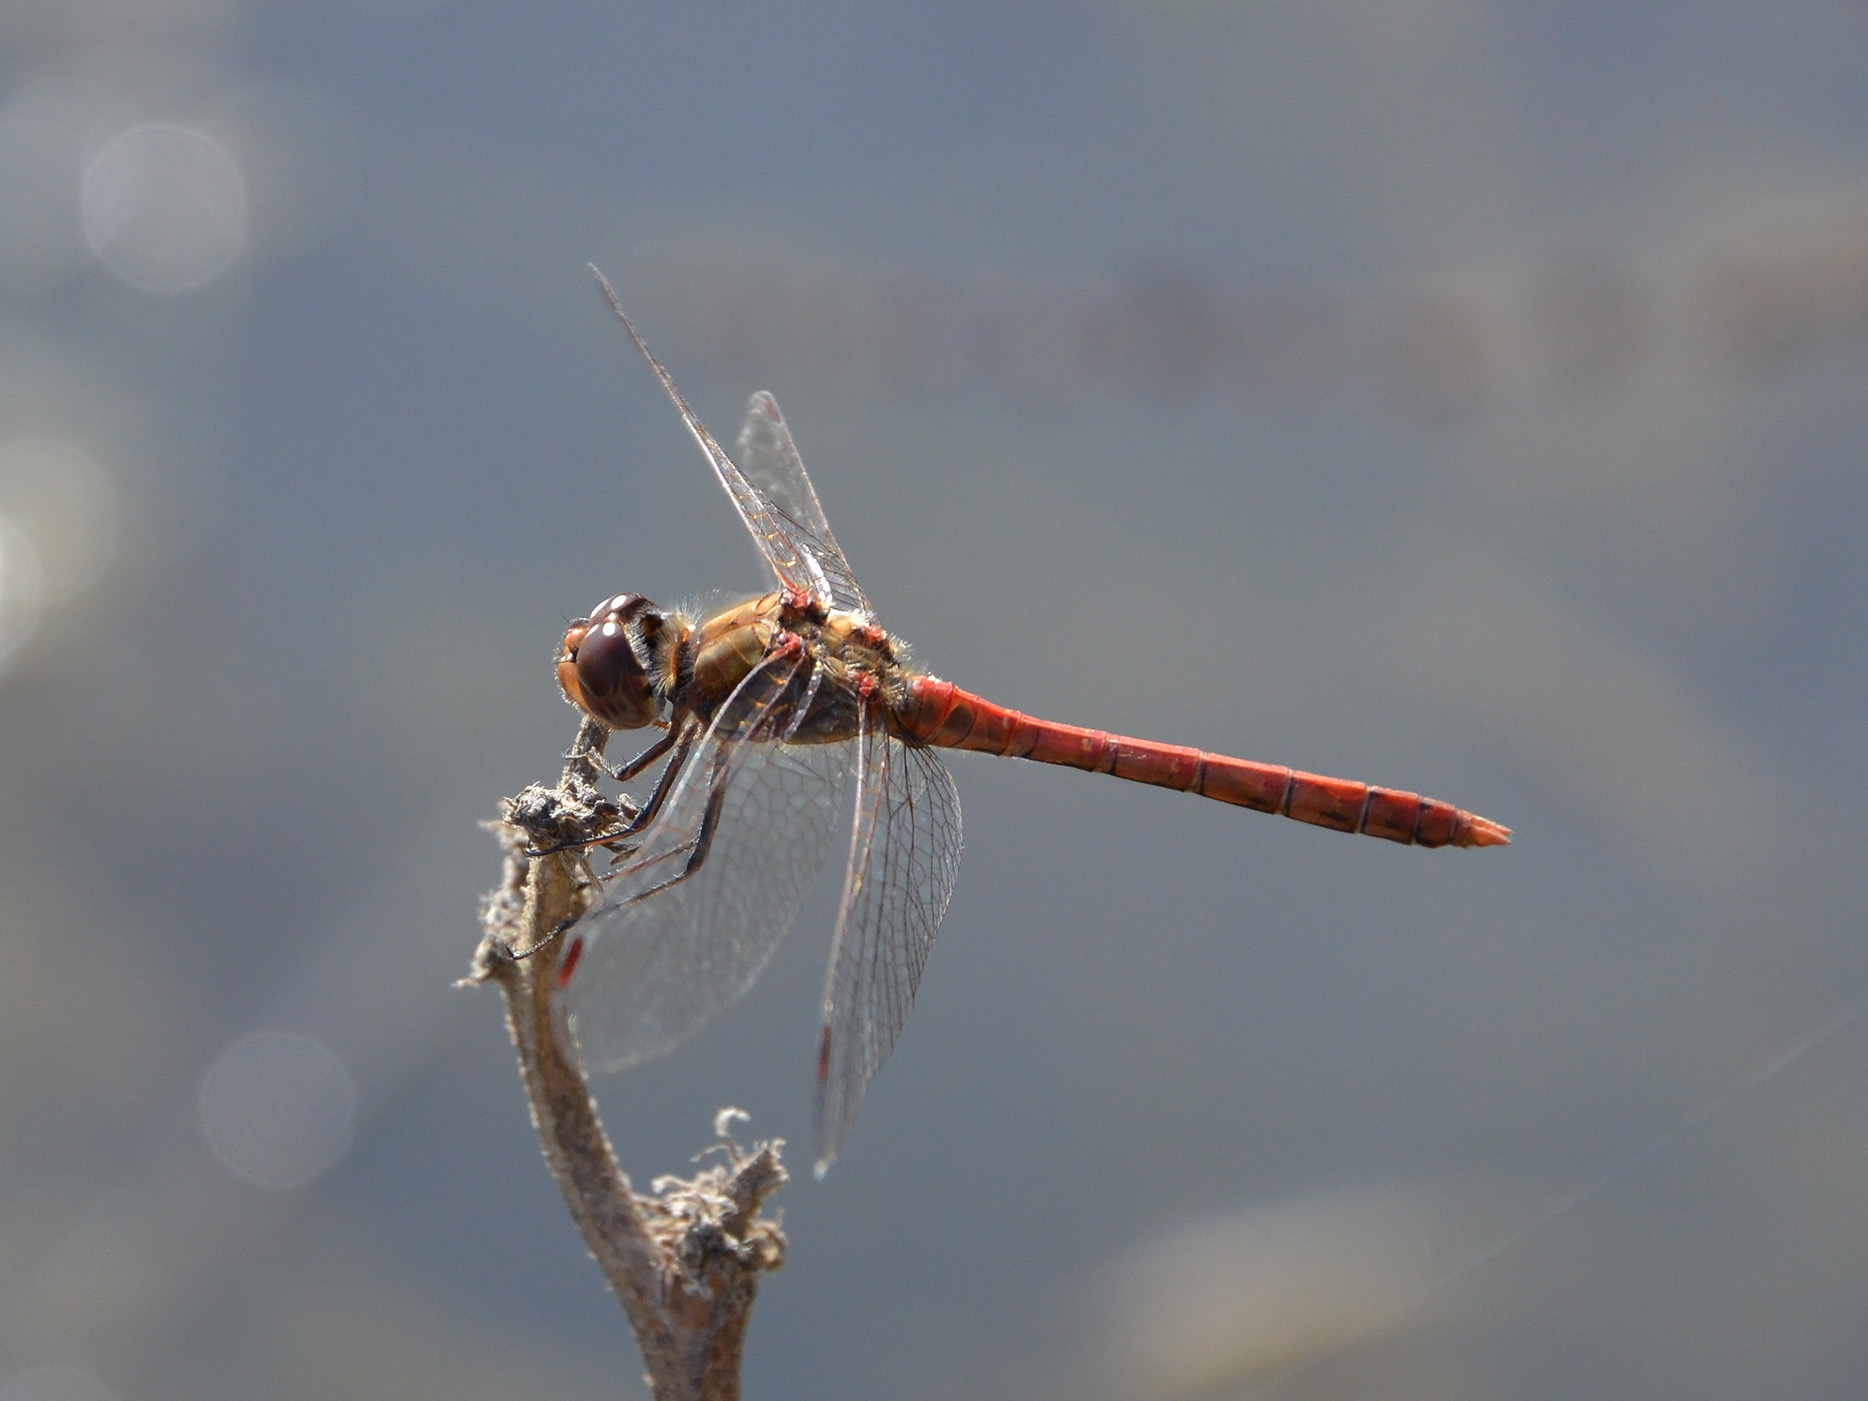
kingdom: Animalia
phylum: Arthropoda
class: Insecta
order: Odonata
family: Libellulidae
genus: Sympetrum
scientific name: Sympetrum striolatum
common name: Common darter
